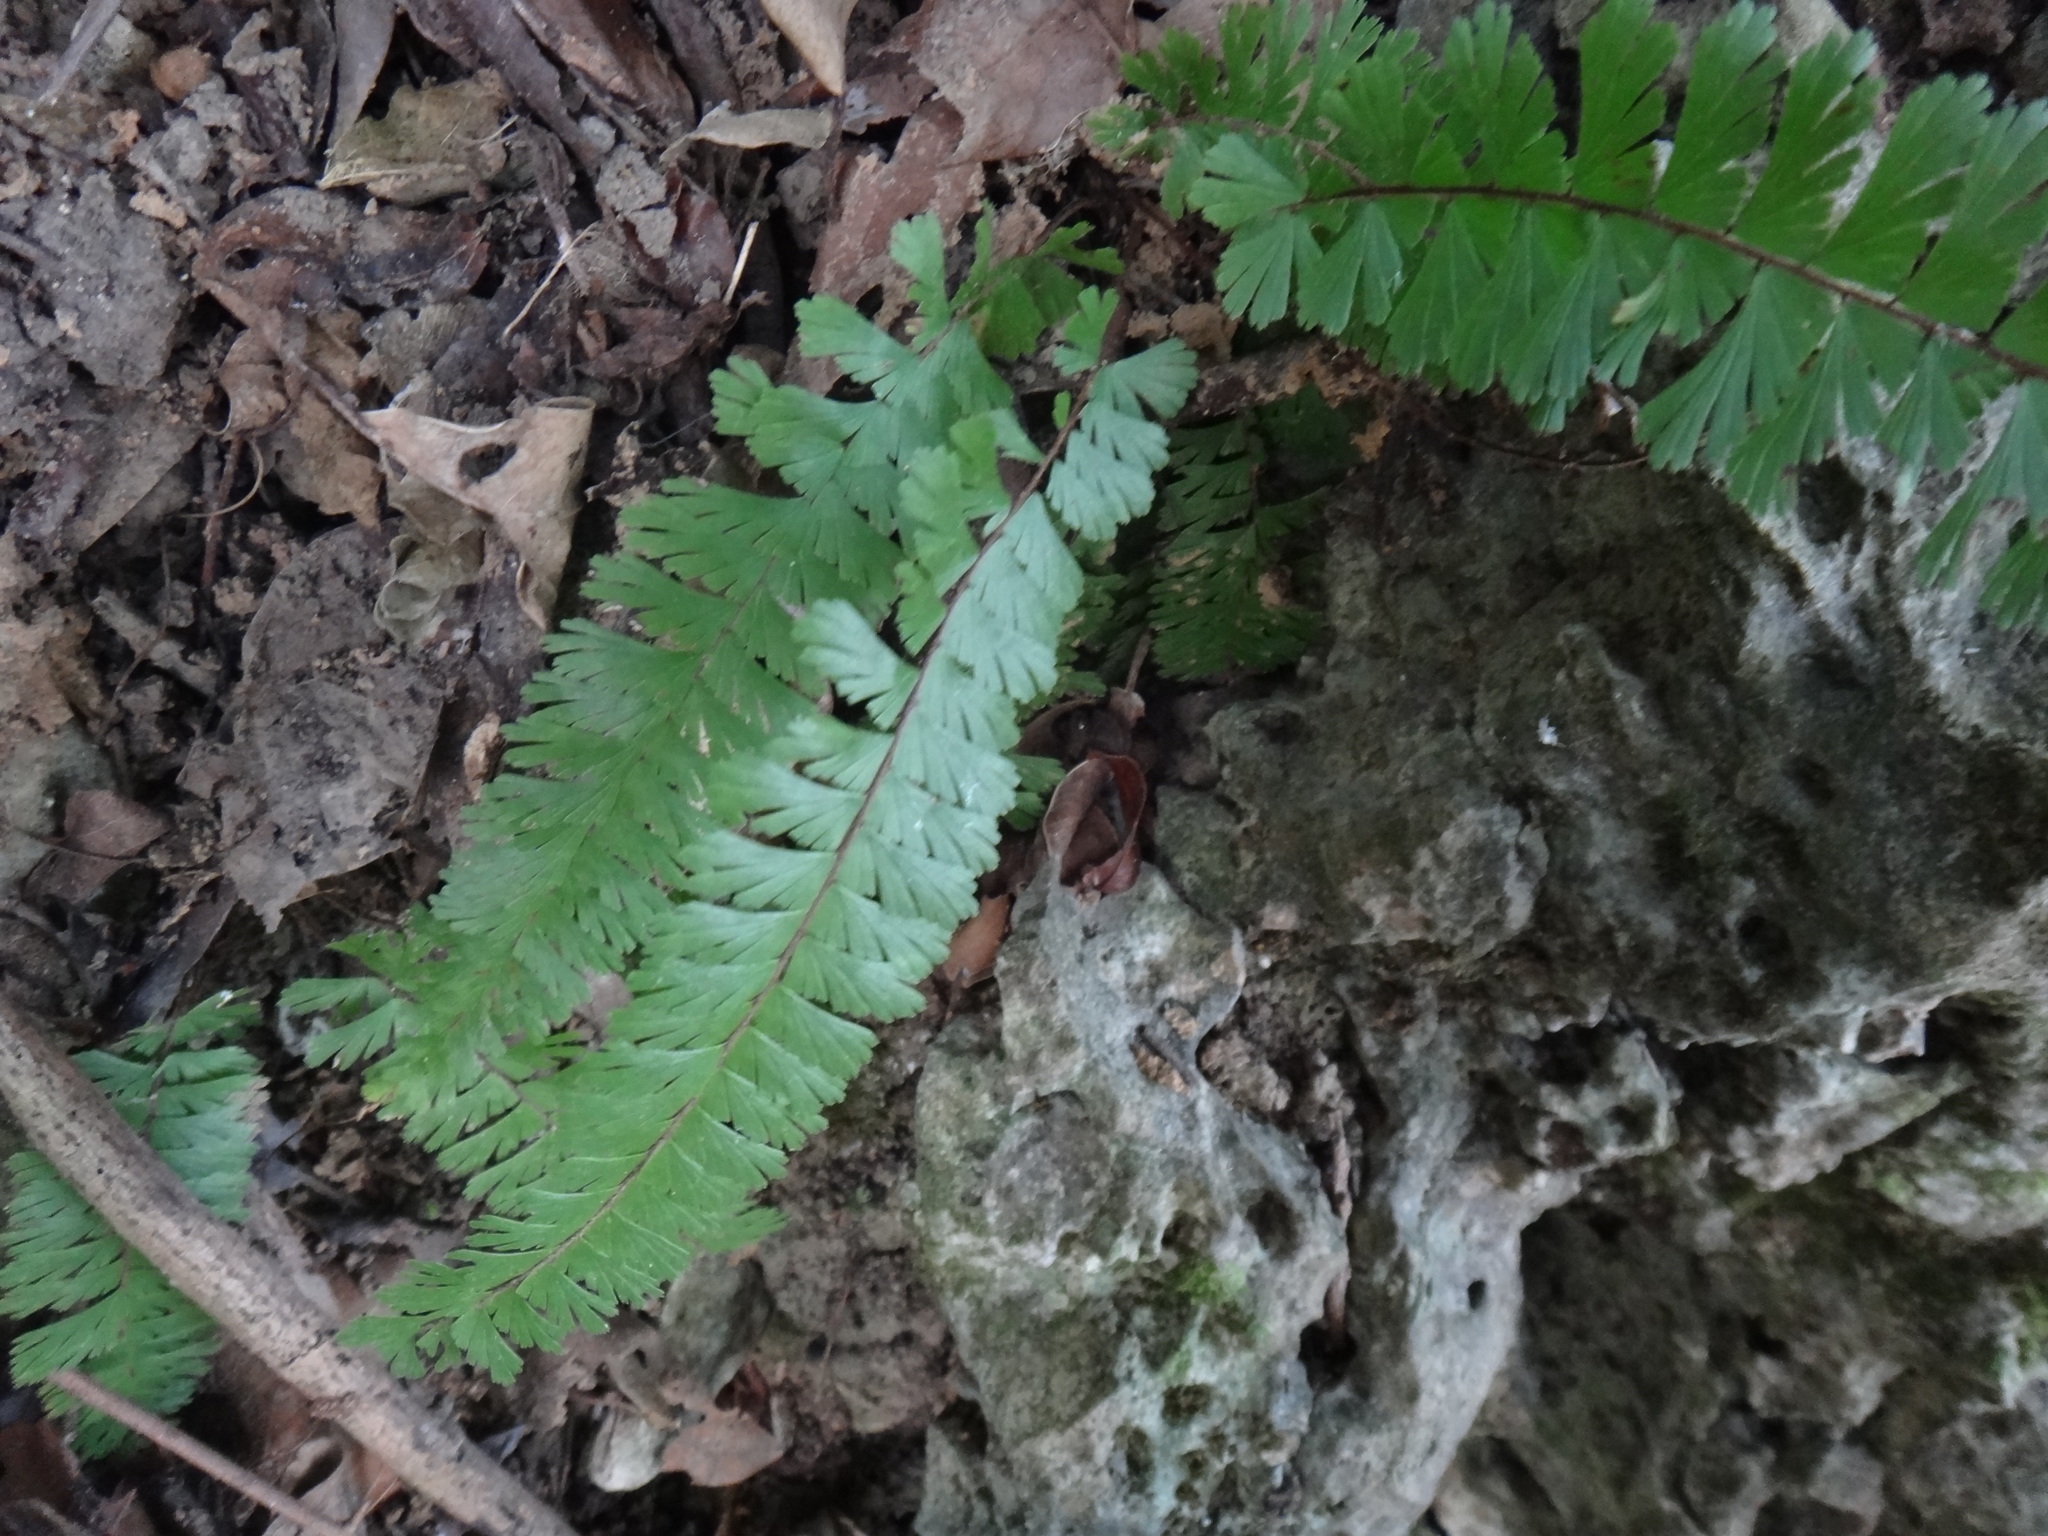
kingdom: Plantae
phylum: Tracheophyta
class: Polypodiopsida
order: Polypodiales
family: Pteridaceae
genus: Adiantum
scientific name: Adiantum caudatum
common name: Tailed maidenhair
